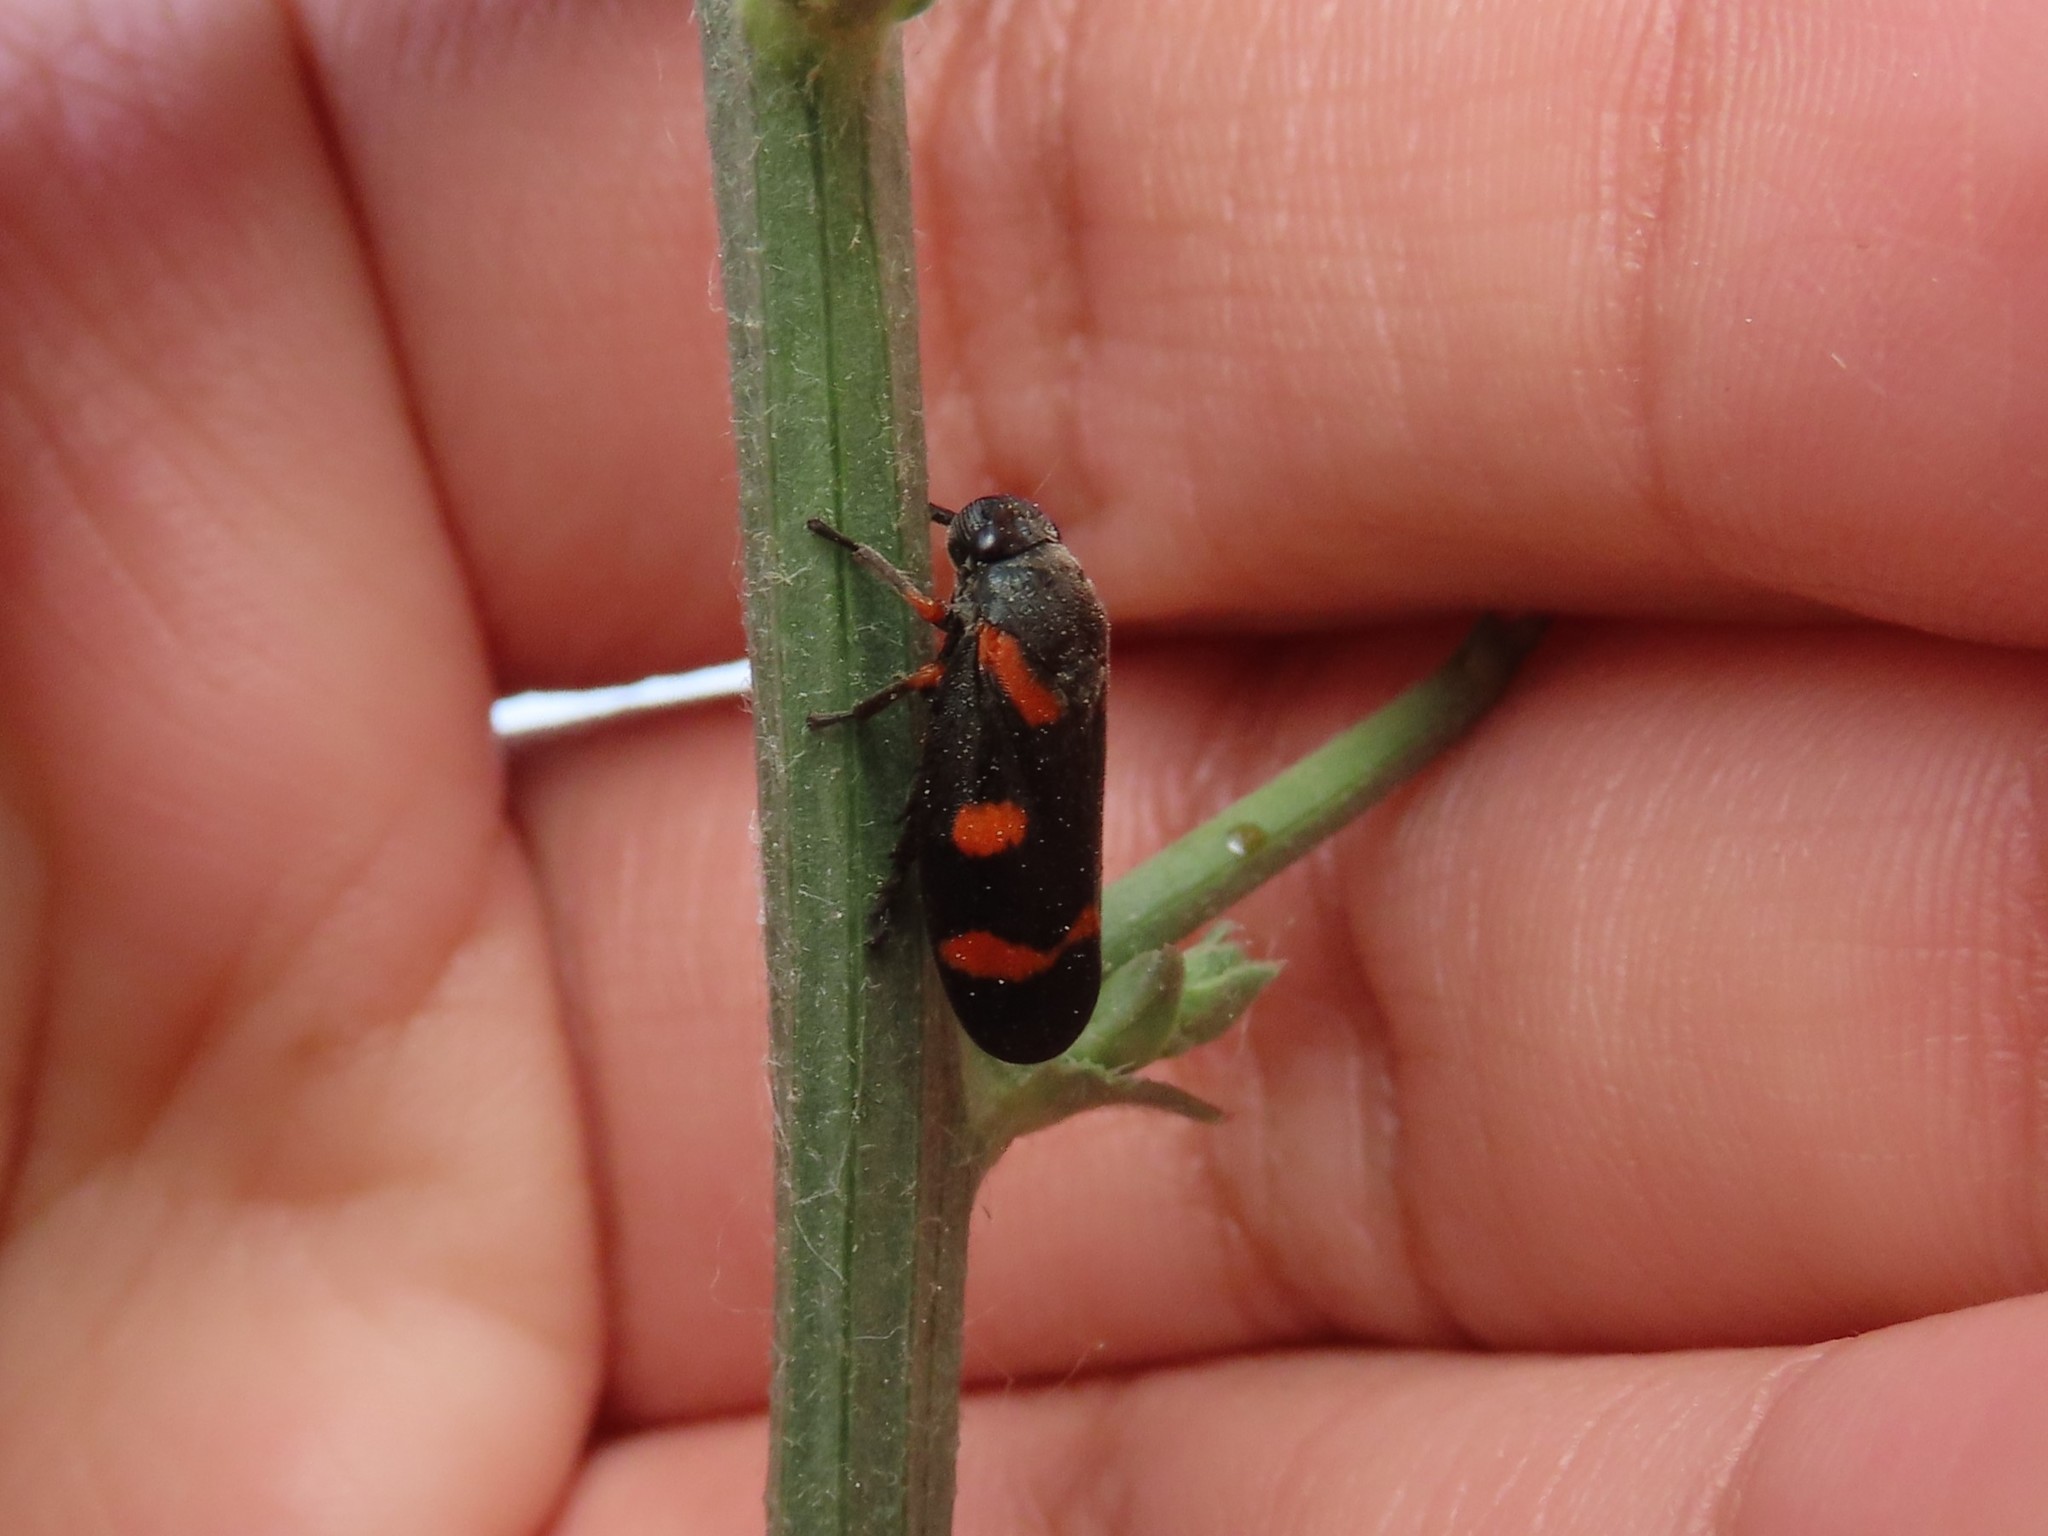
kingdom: Animalia
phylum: Arthropoda
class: Insecta
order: Hemiptera
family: Cercopidae
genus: Cercopis
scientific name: Cercopis intermedia
